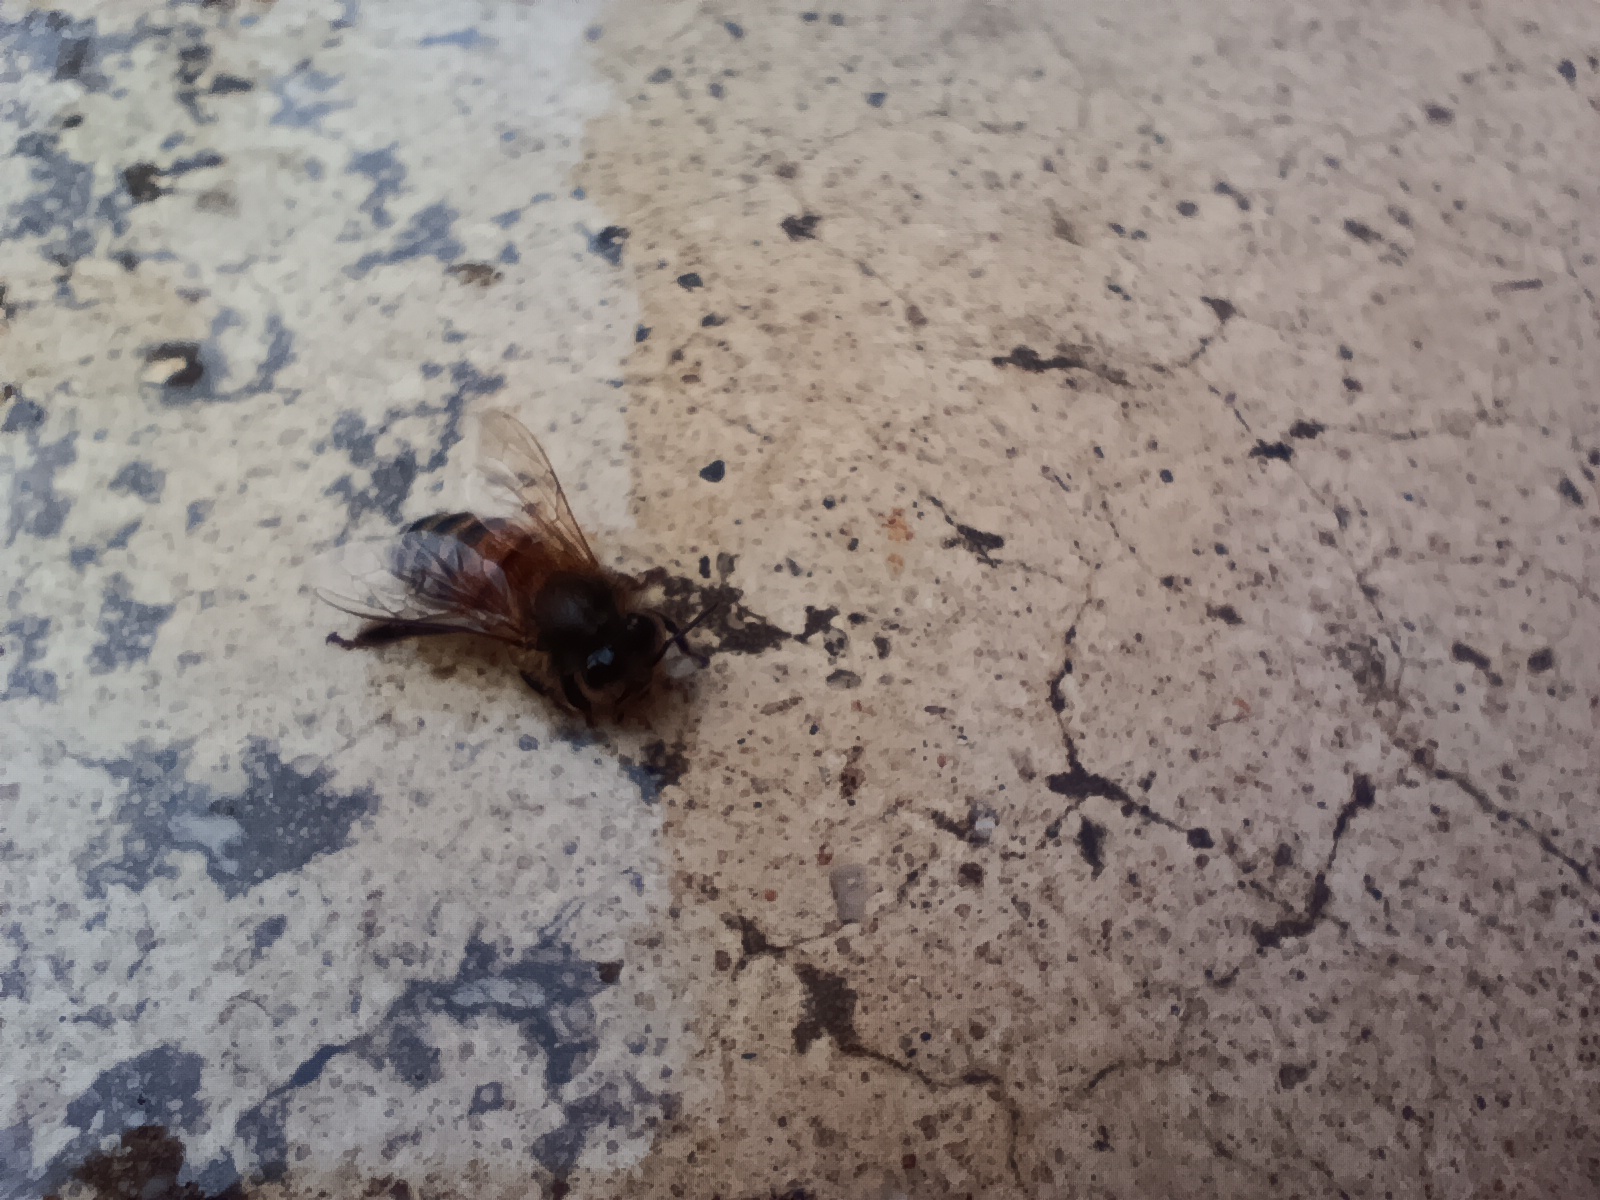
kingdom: Animalia
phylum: Arthropoda
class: Insecta
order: Hymenoptera
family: Apidae
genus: Apis
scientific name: Apis mellifera
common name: Honey bee
